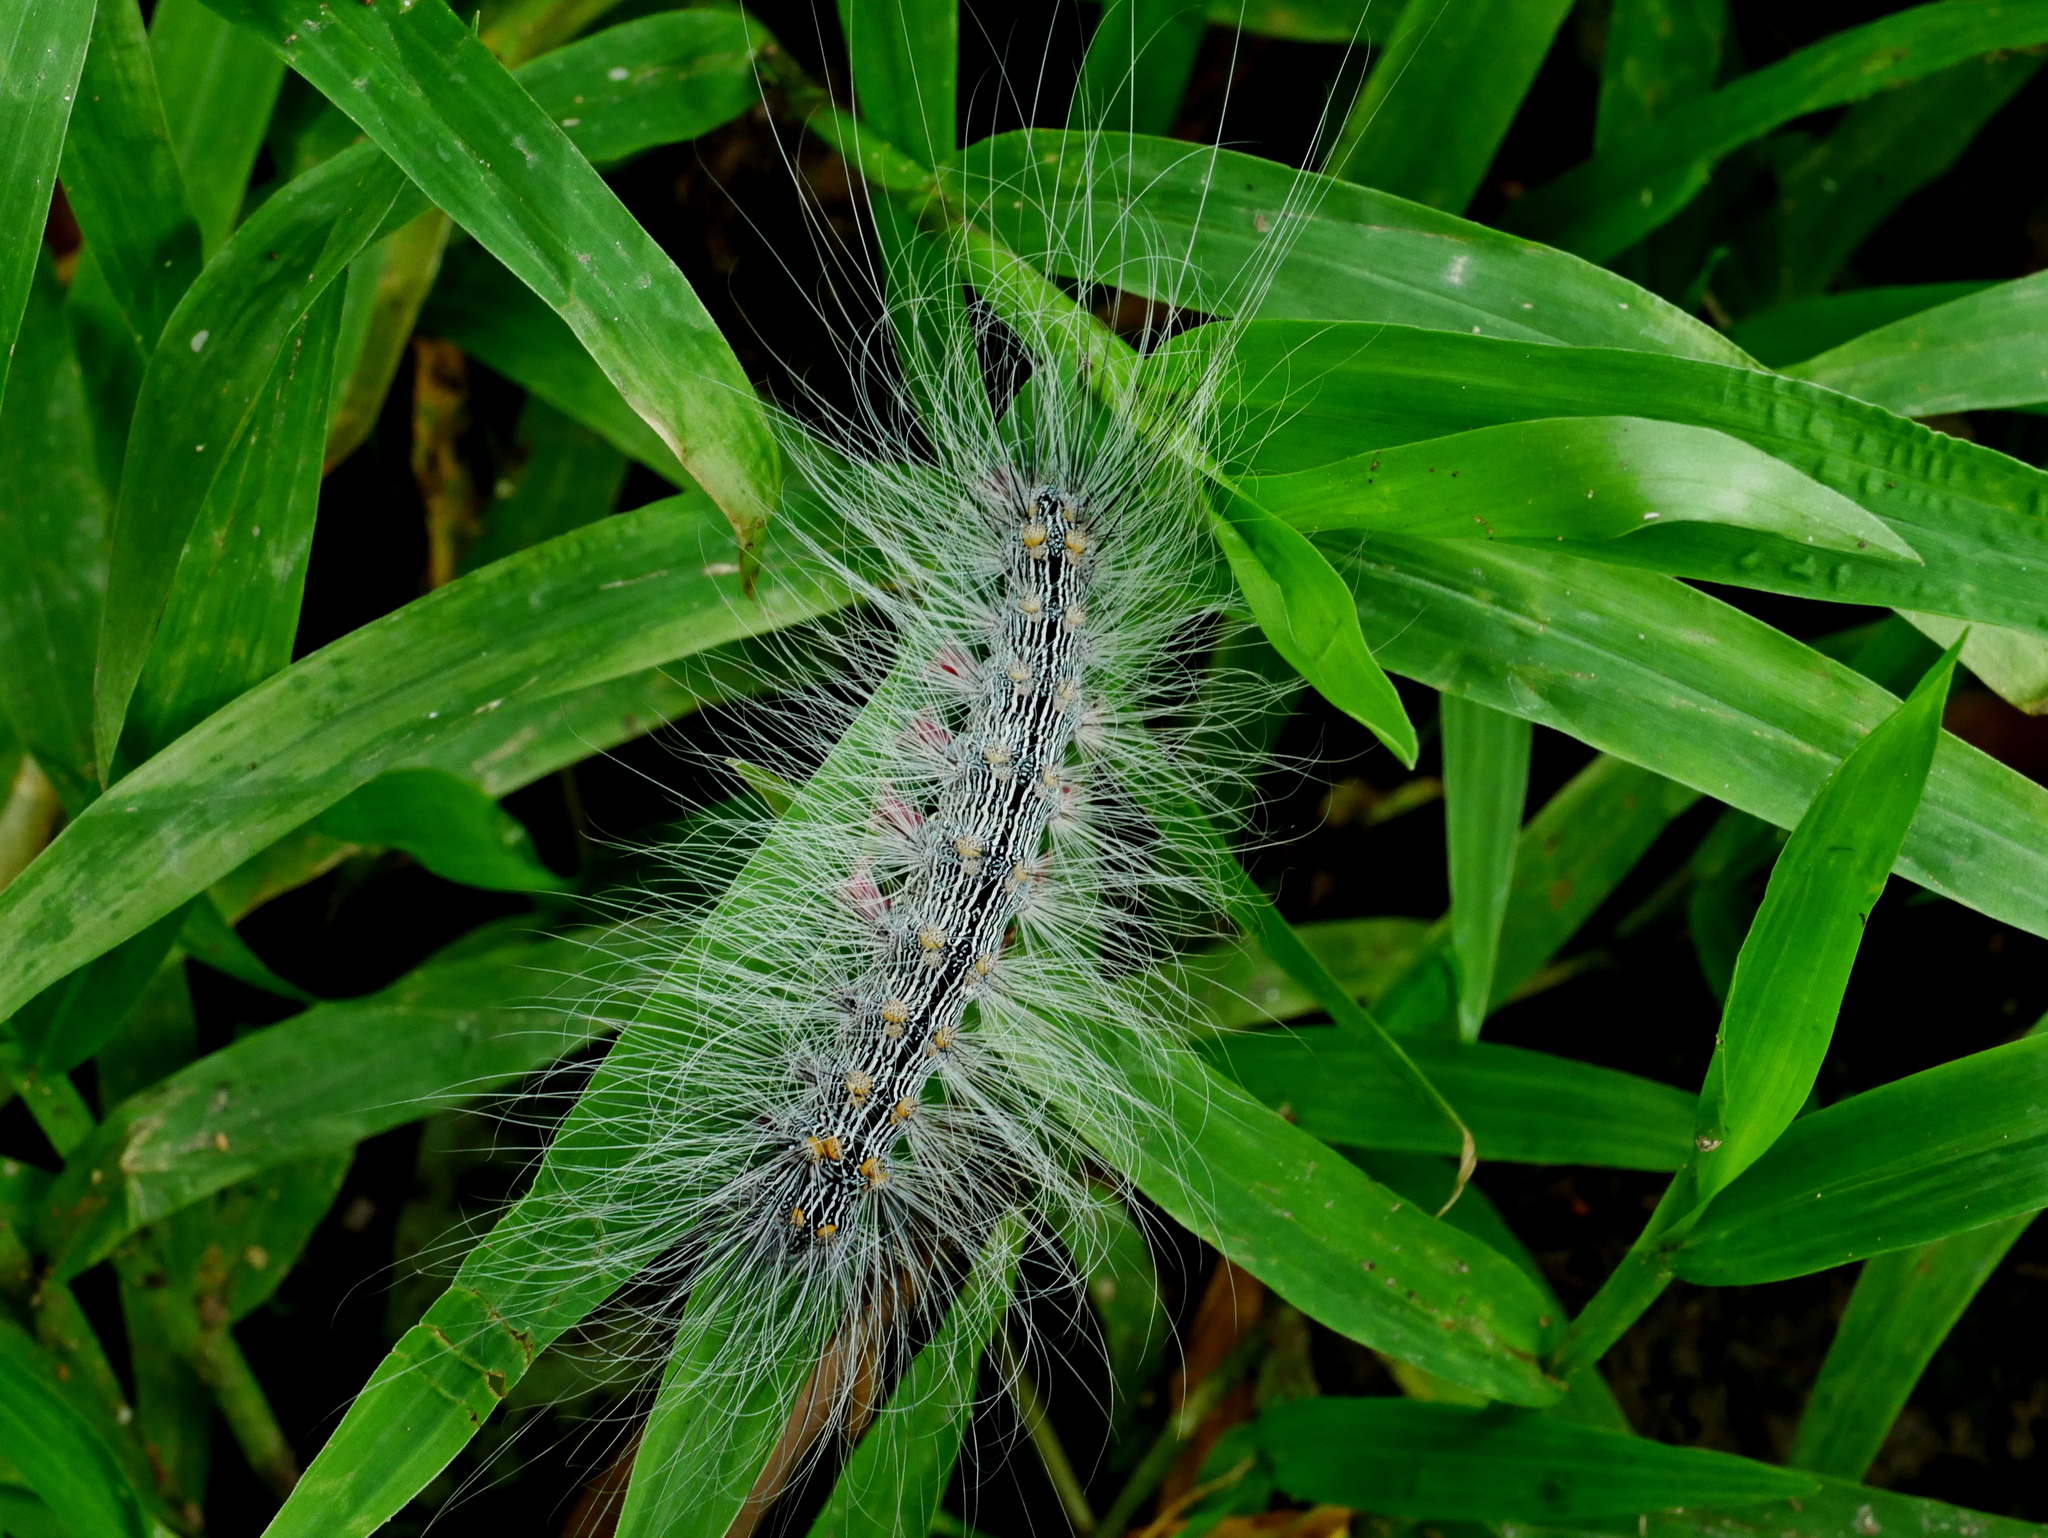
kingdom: Animalia
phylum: Arthropoda
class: Insecta
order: Lepidoptera
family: Erebidae
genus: Chrysaeglia
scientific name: Chrysaeglia magnifica
